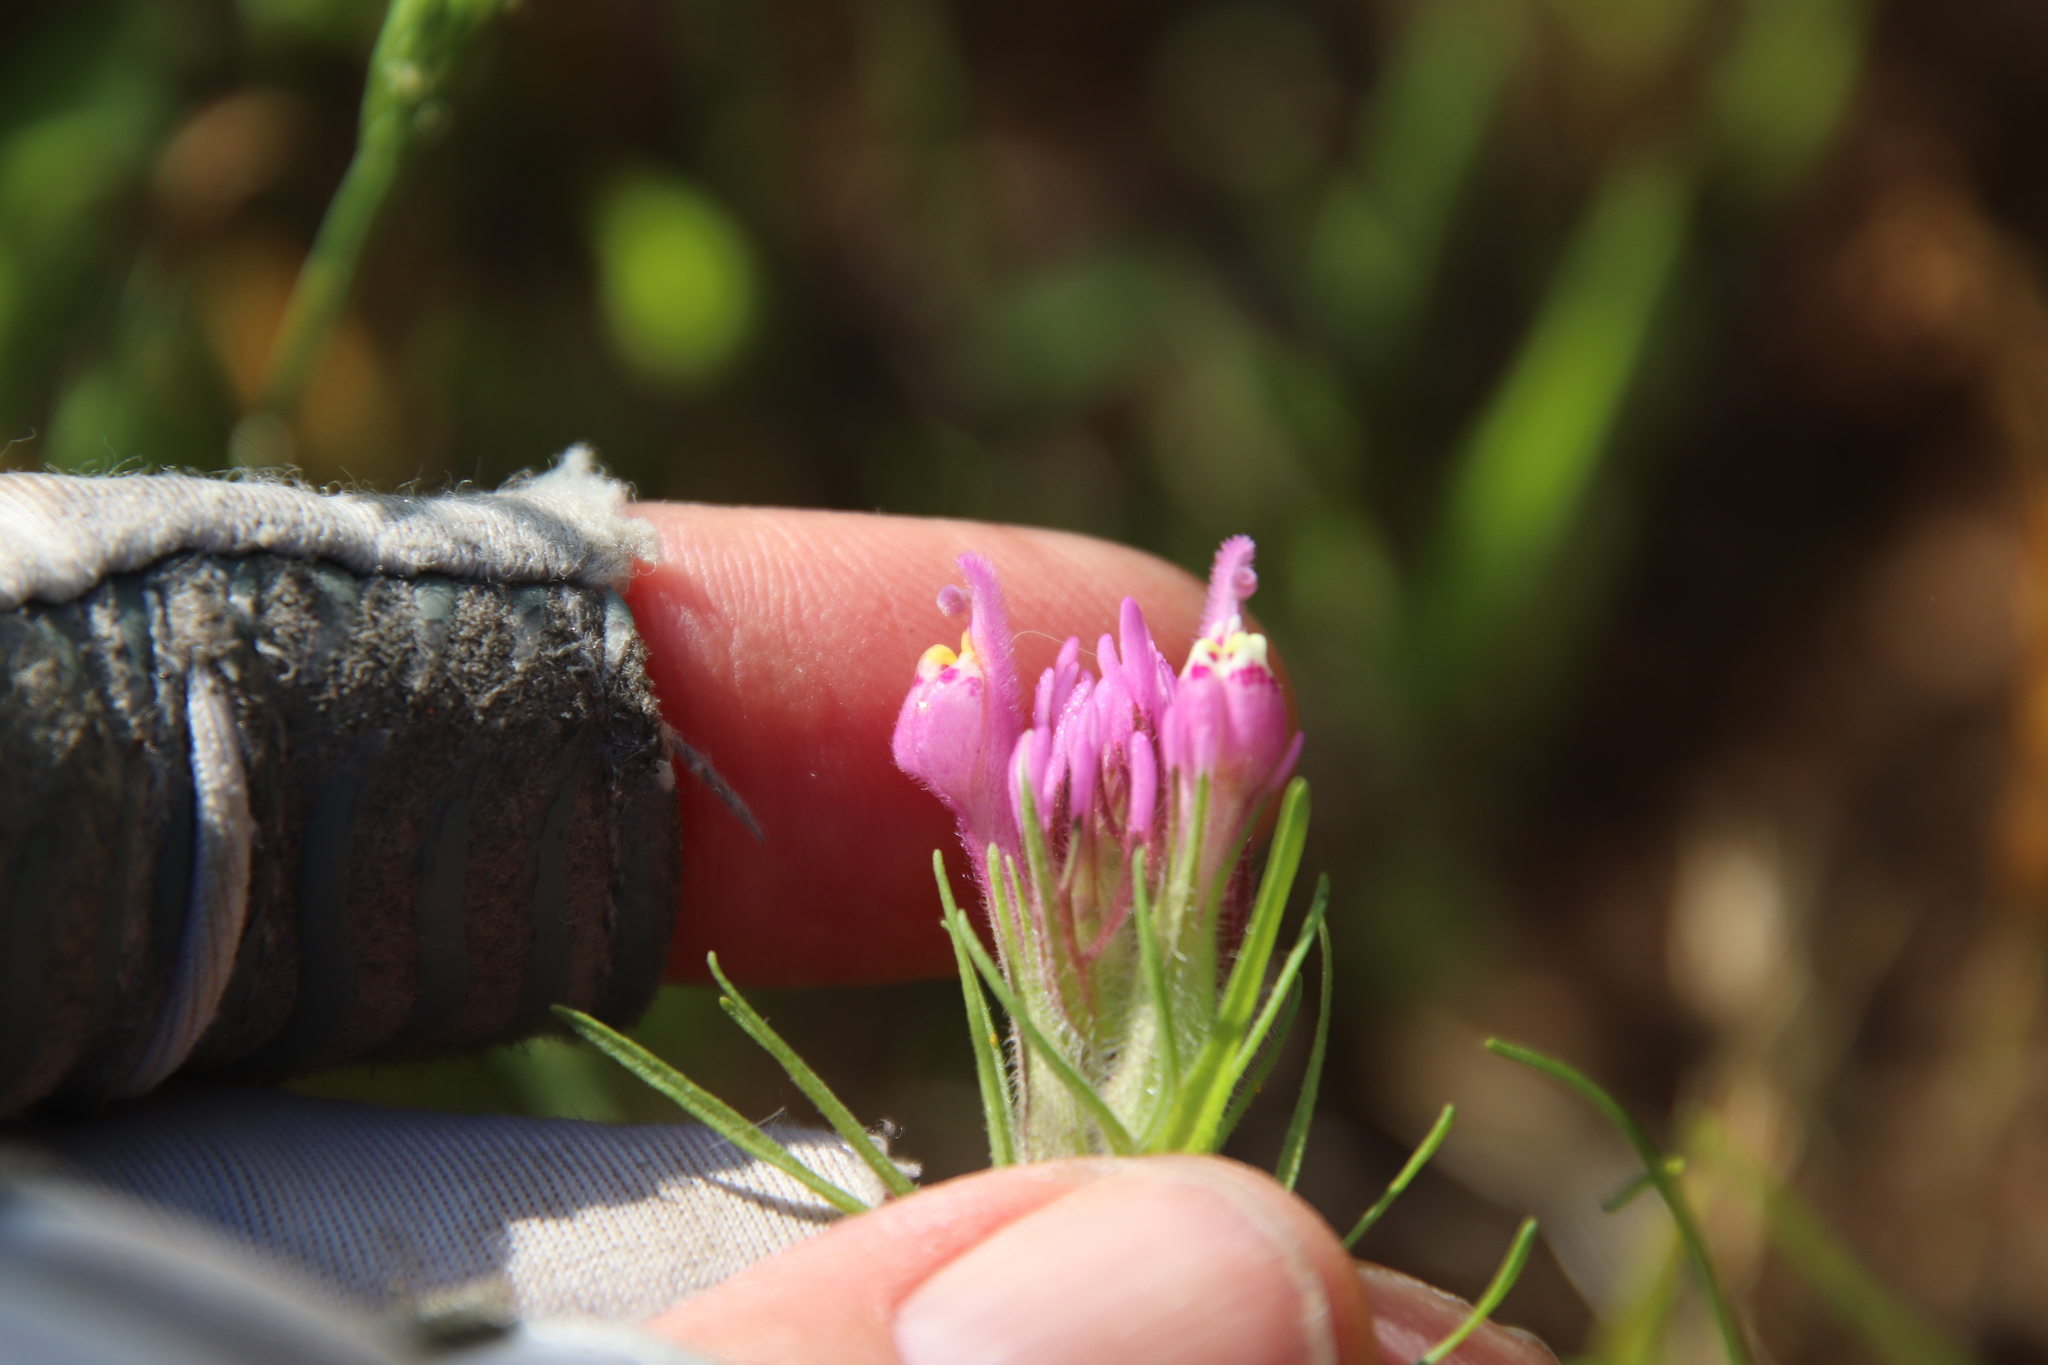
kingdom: Plantae
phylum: Tracheophyta
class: Magnoliopsida
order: Lamiales
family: Orobanchaceae
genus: Castilleja
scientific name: Castilleja exserta
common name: Purple owl-clover
